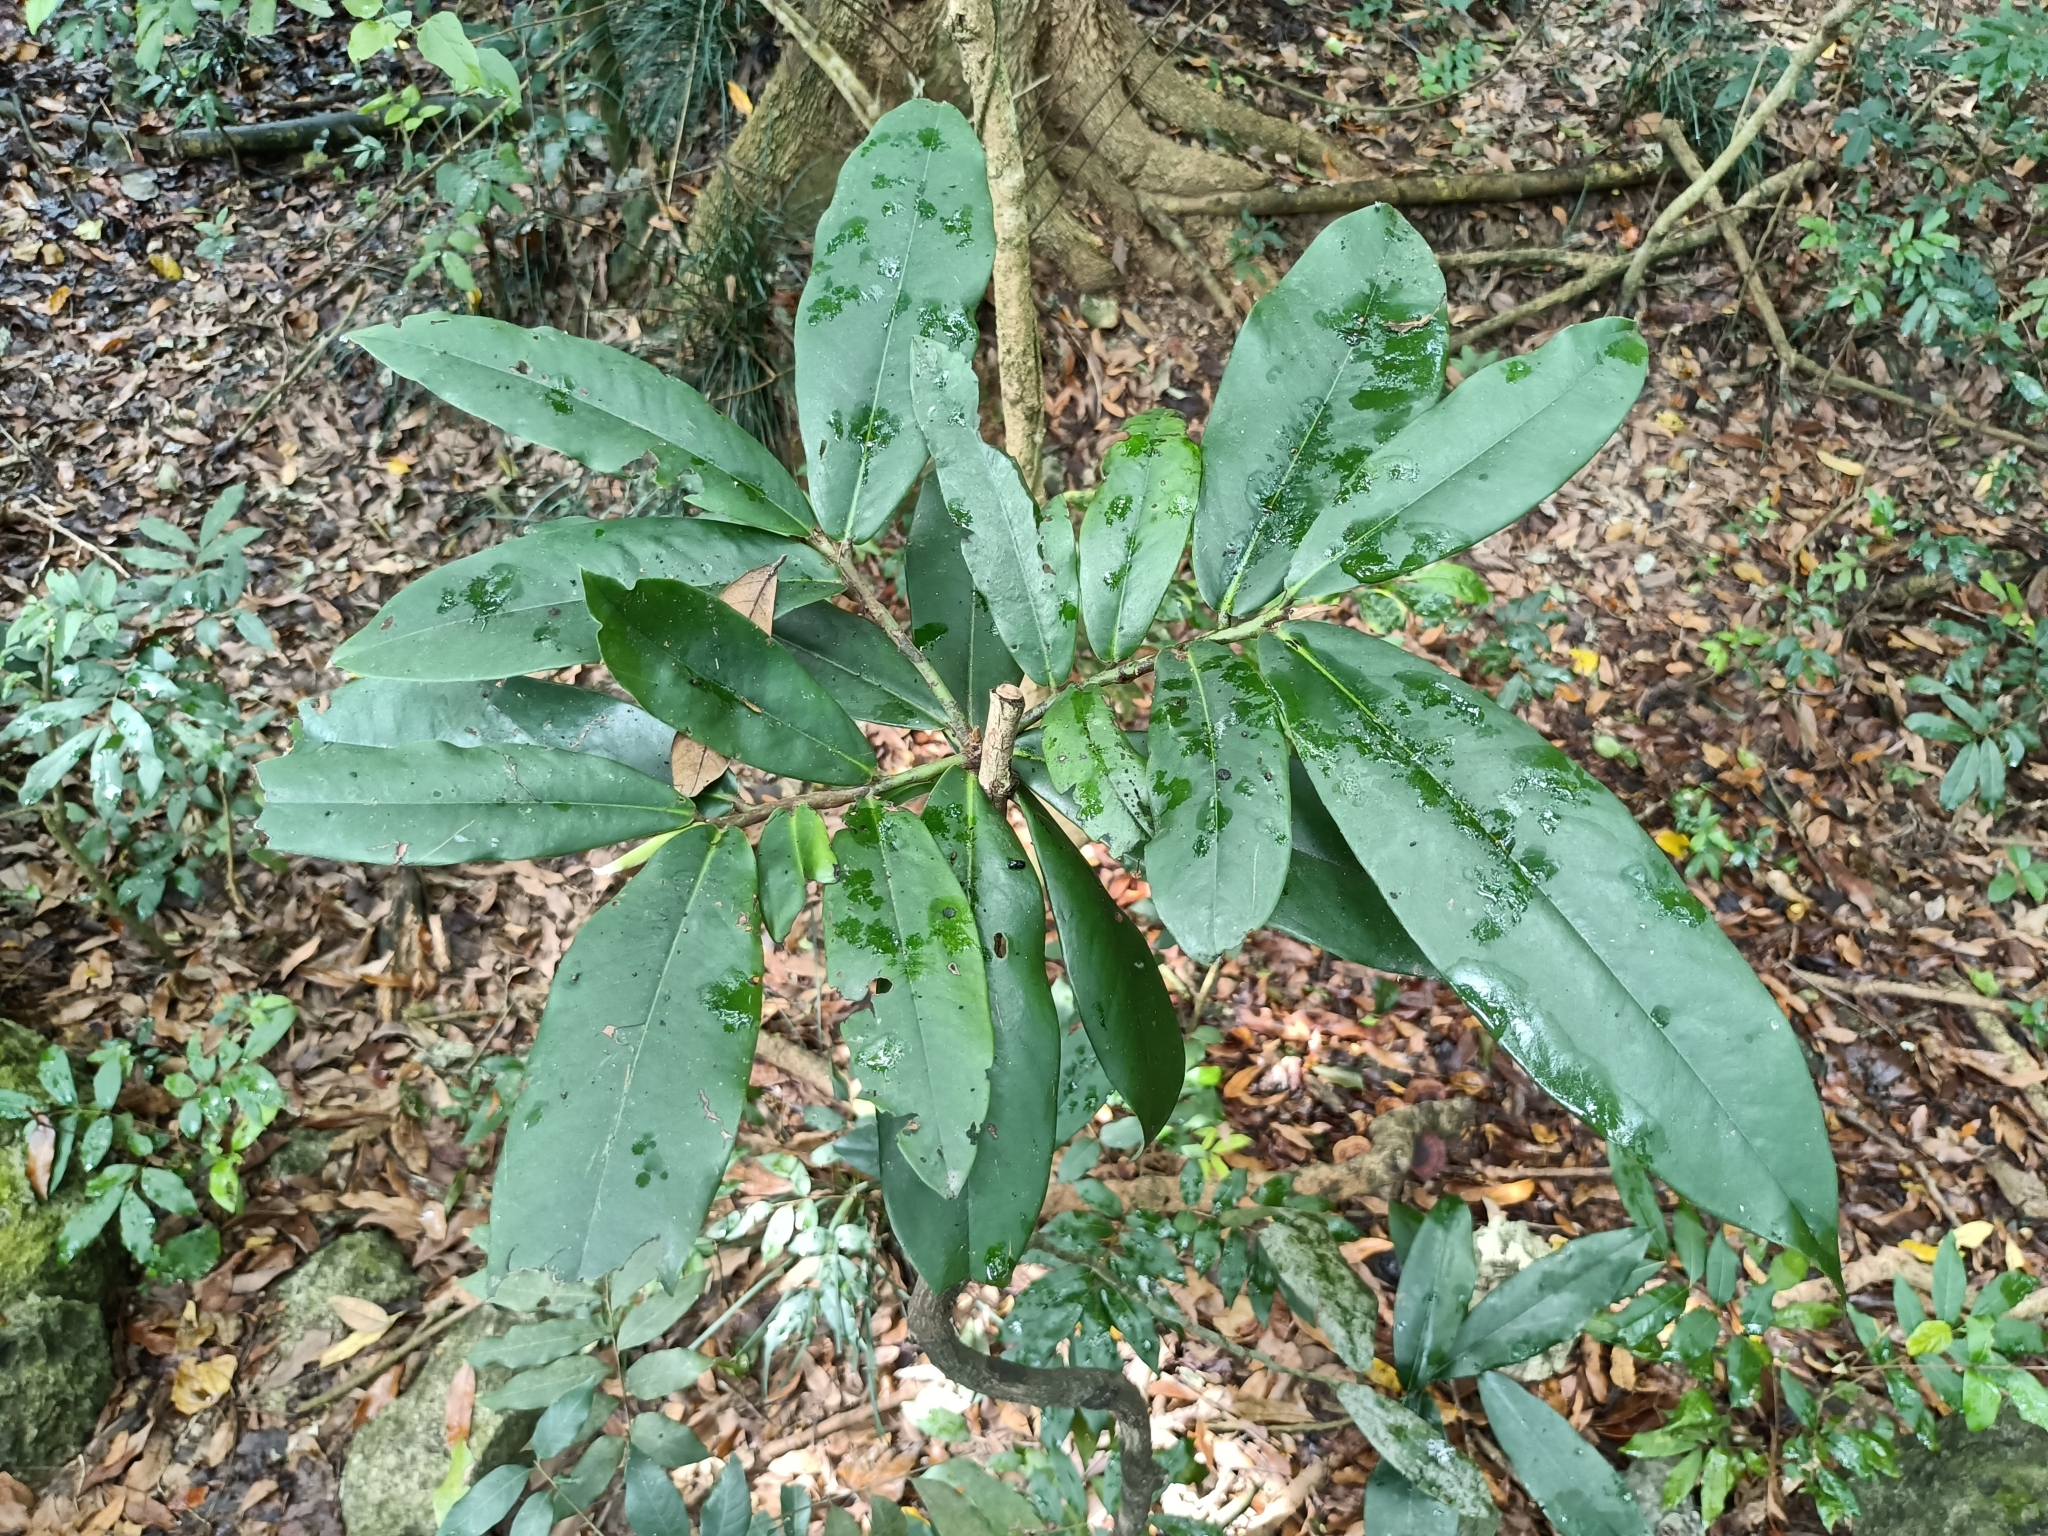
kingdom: Plantae
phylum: Tracheophyta
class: Magnoliopsida
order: Ericales
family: Ebenaceae
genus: Diospyros
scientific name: Diospyros blancoi
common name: Mabola-tree
